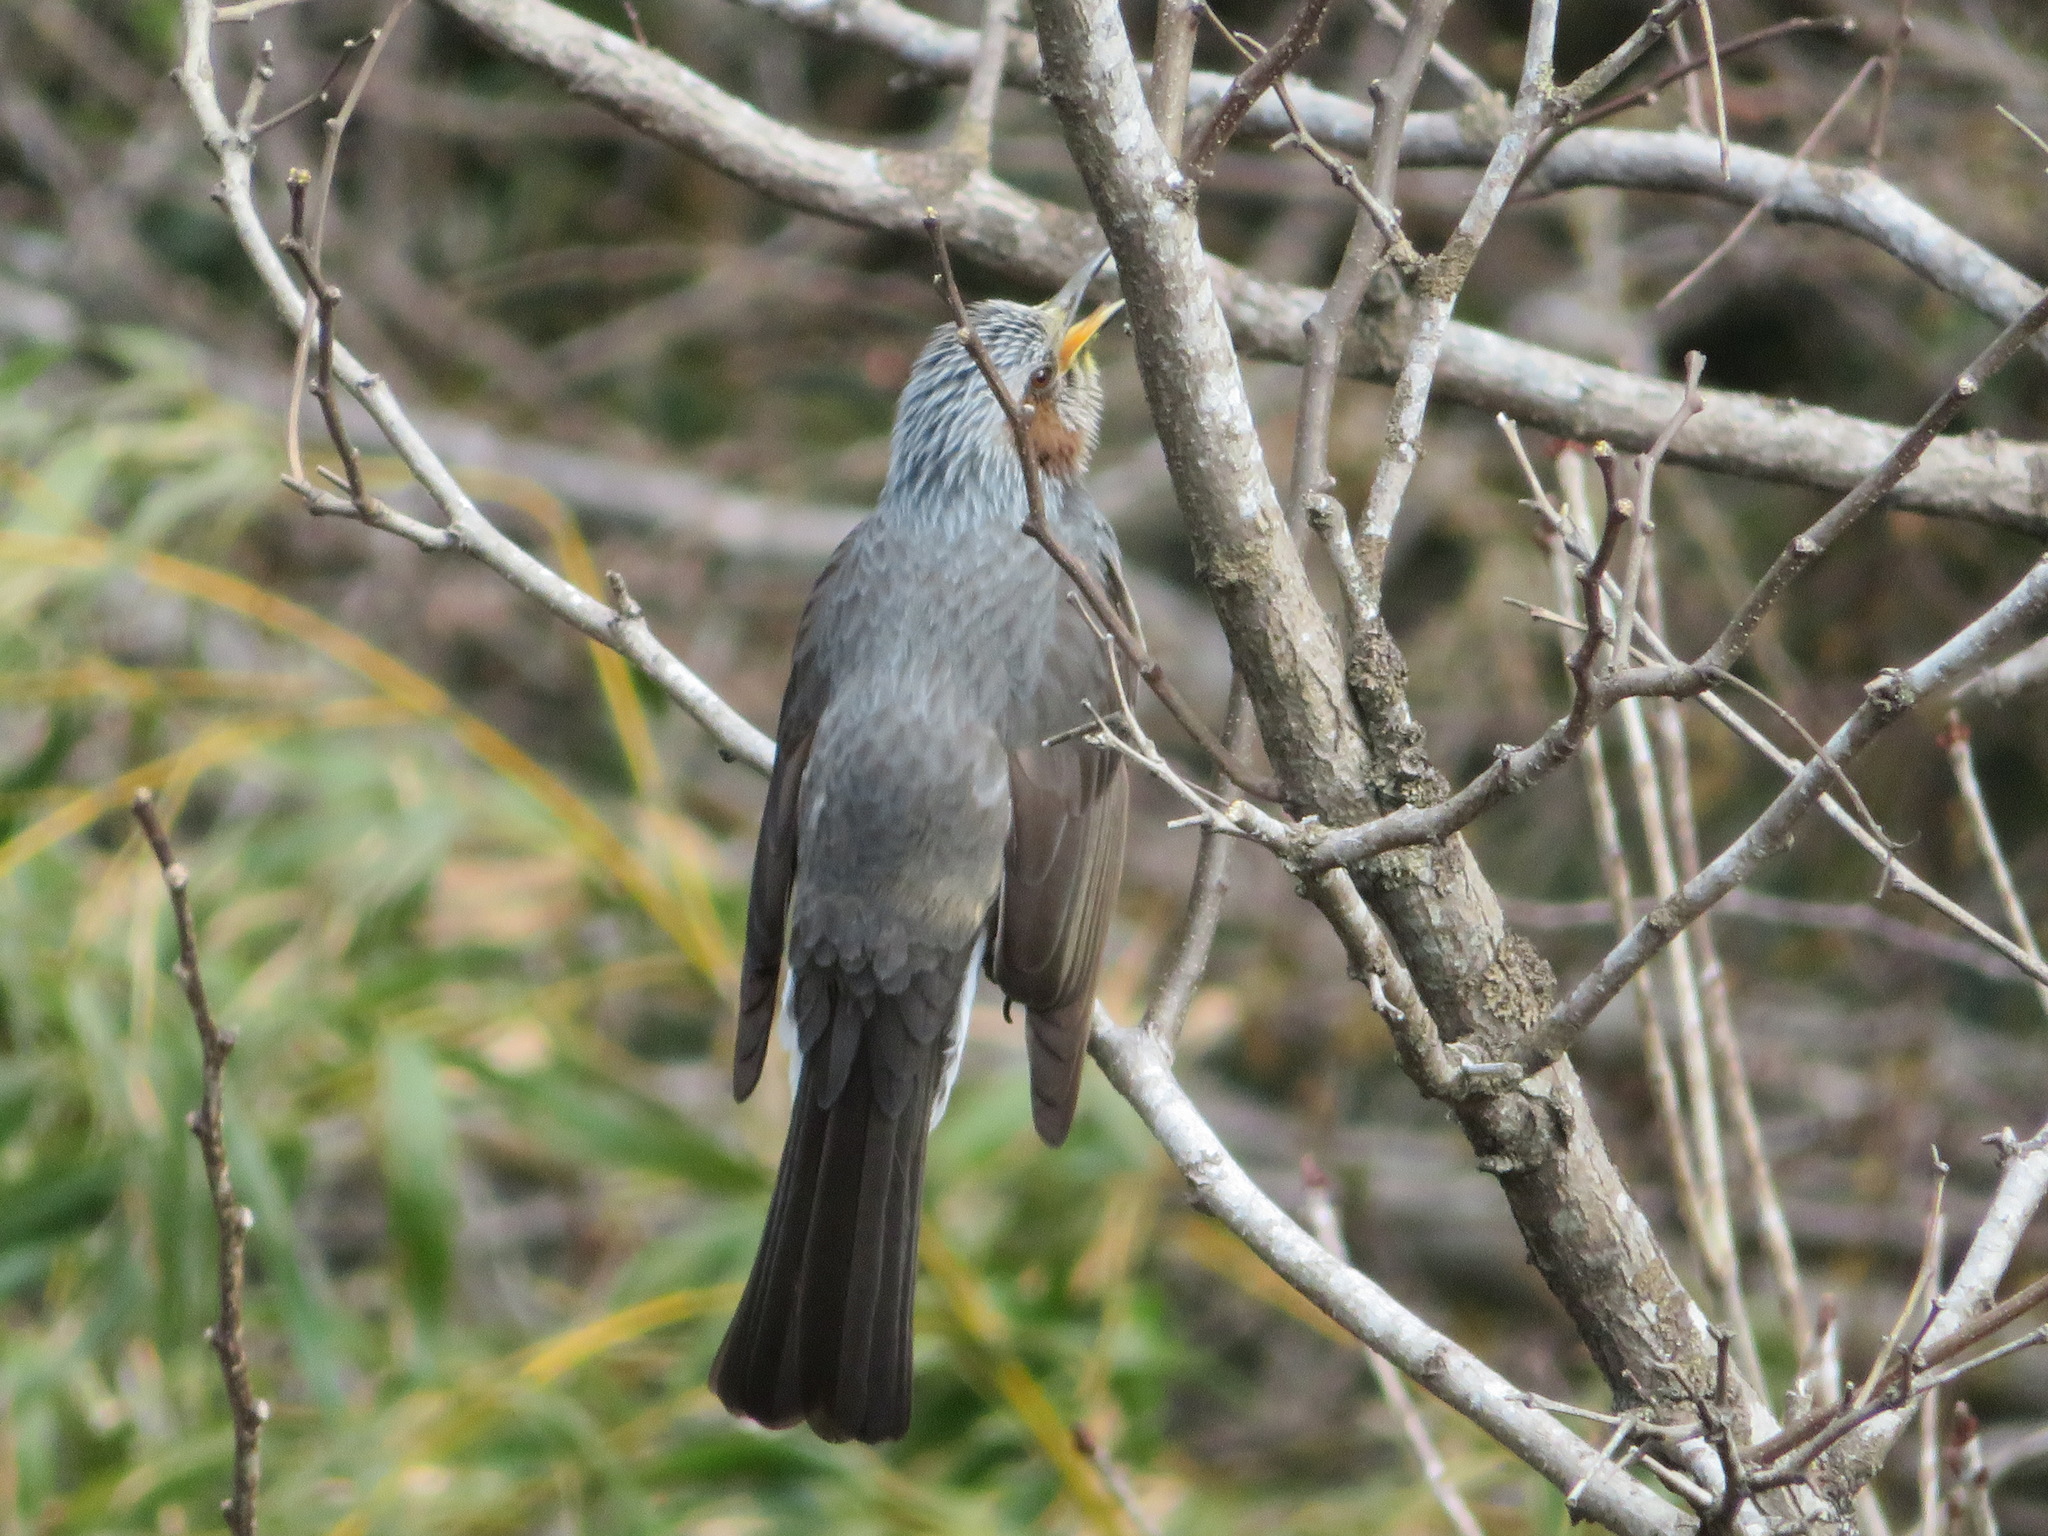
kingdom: Animalia
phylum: Chordata
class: Aves
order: Passeriformes
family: Pycnonotidae
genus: Hypsipetes
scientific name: Hypsipetes amaurotis
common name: Brown-eared bulbul
